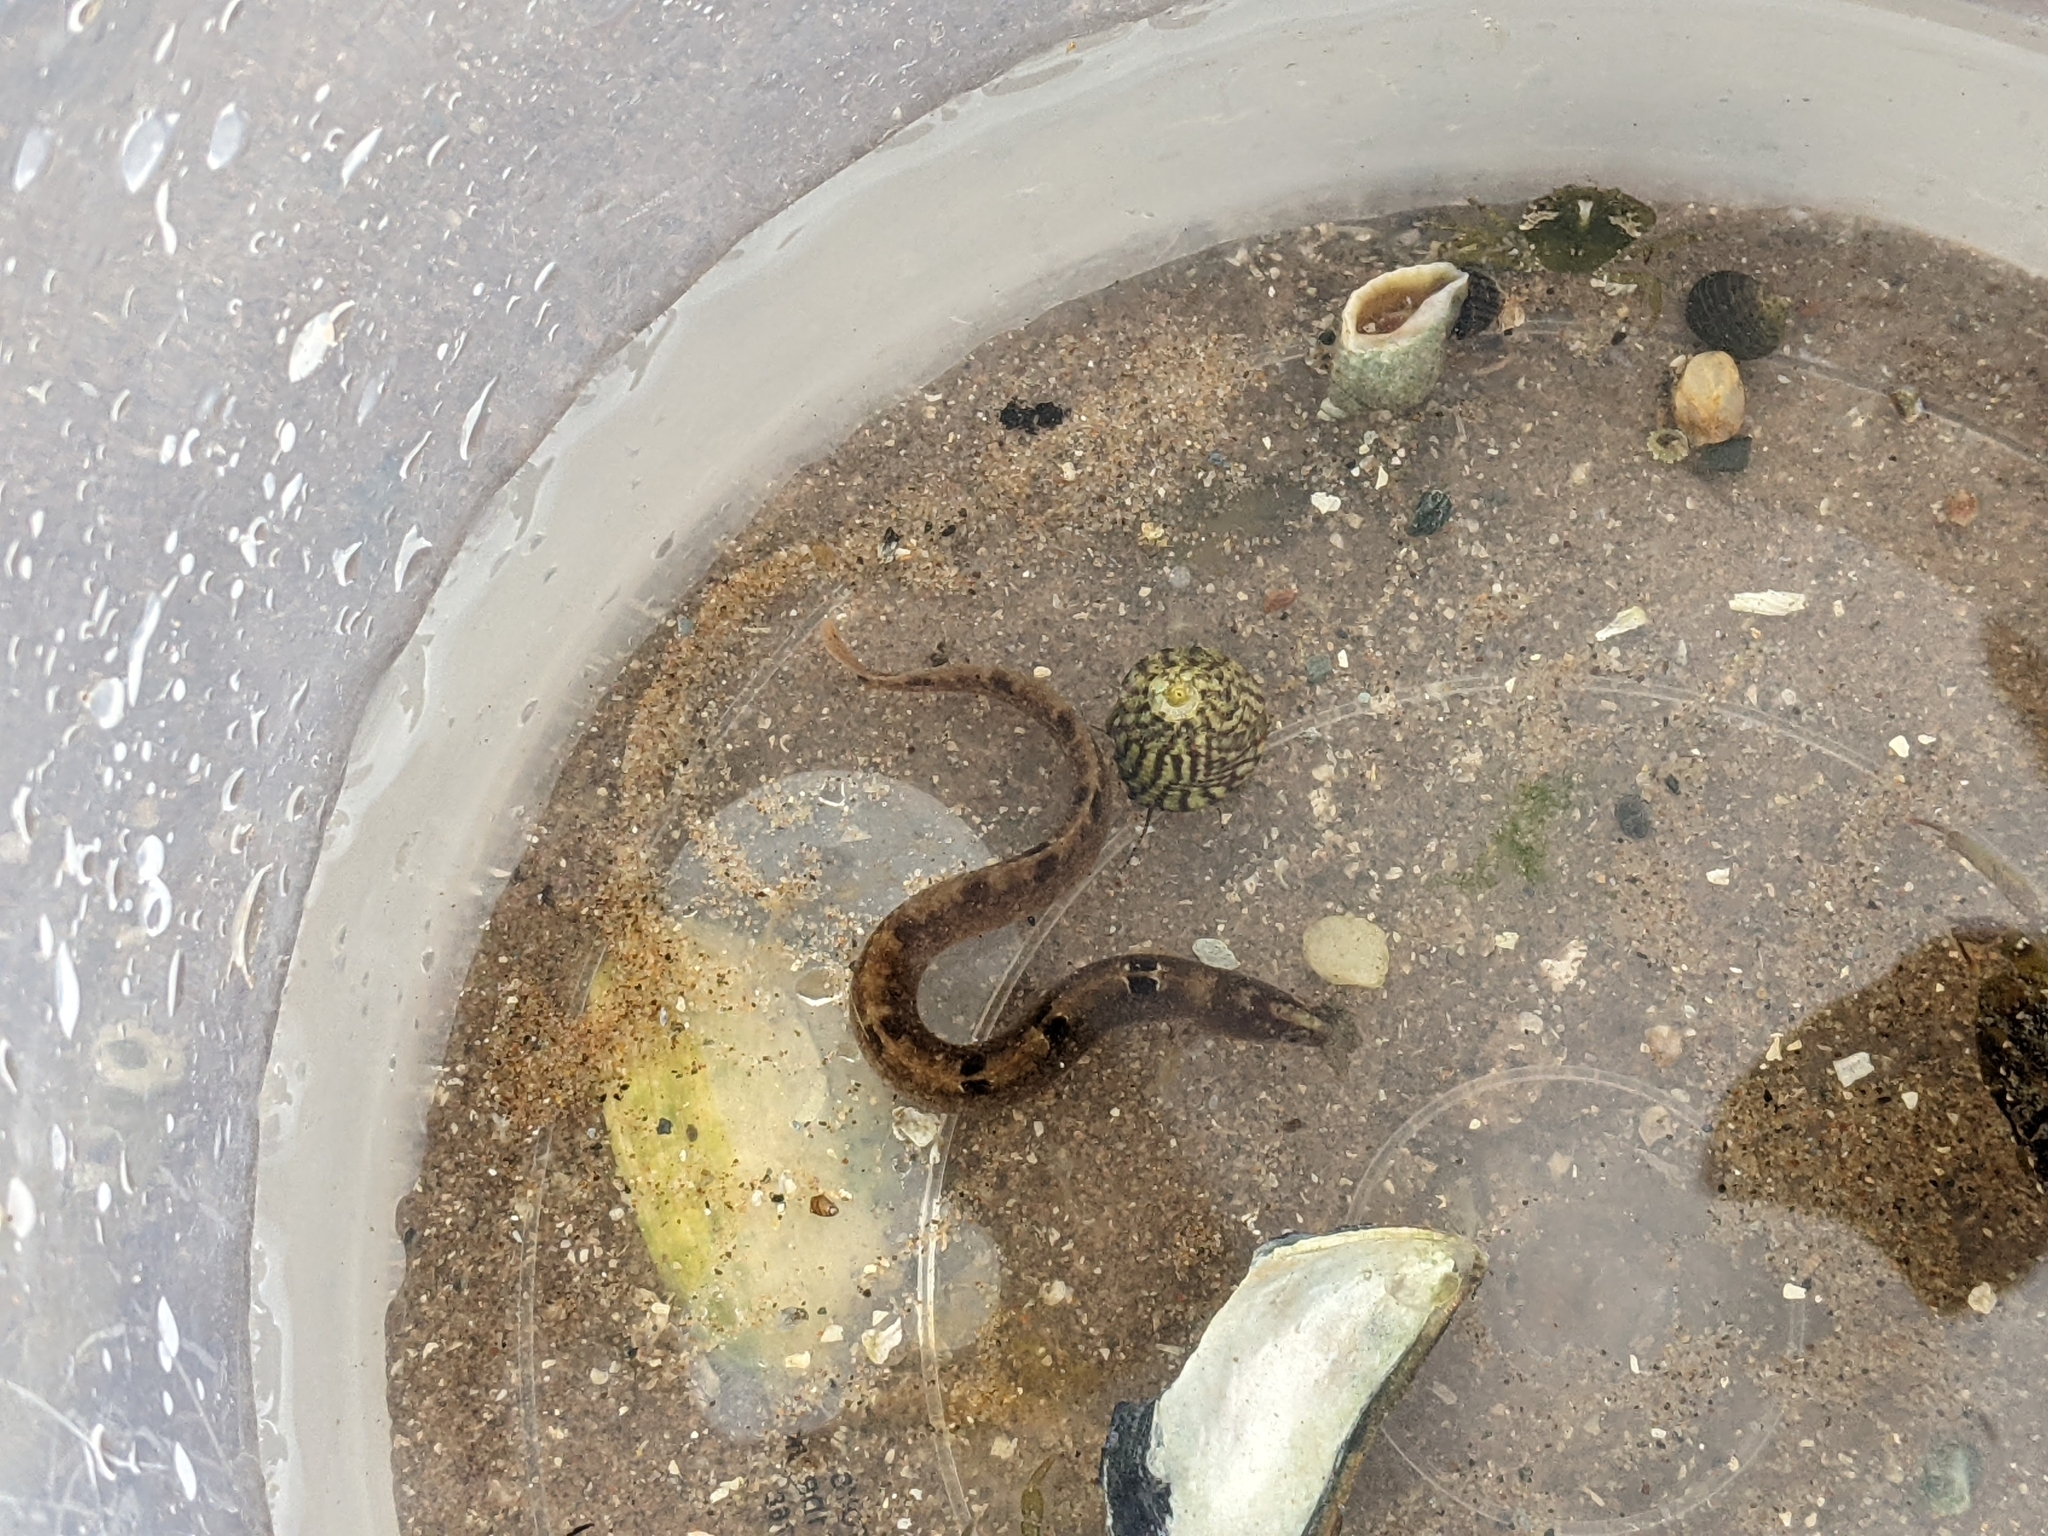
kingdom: Animalia
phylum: Chordata
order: Perciformes
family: Pholidae
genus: Pholis
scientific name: Pholis gunnellus
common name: Butterfish
